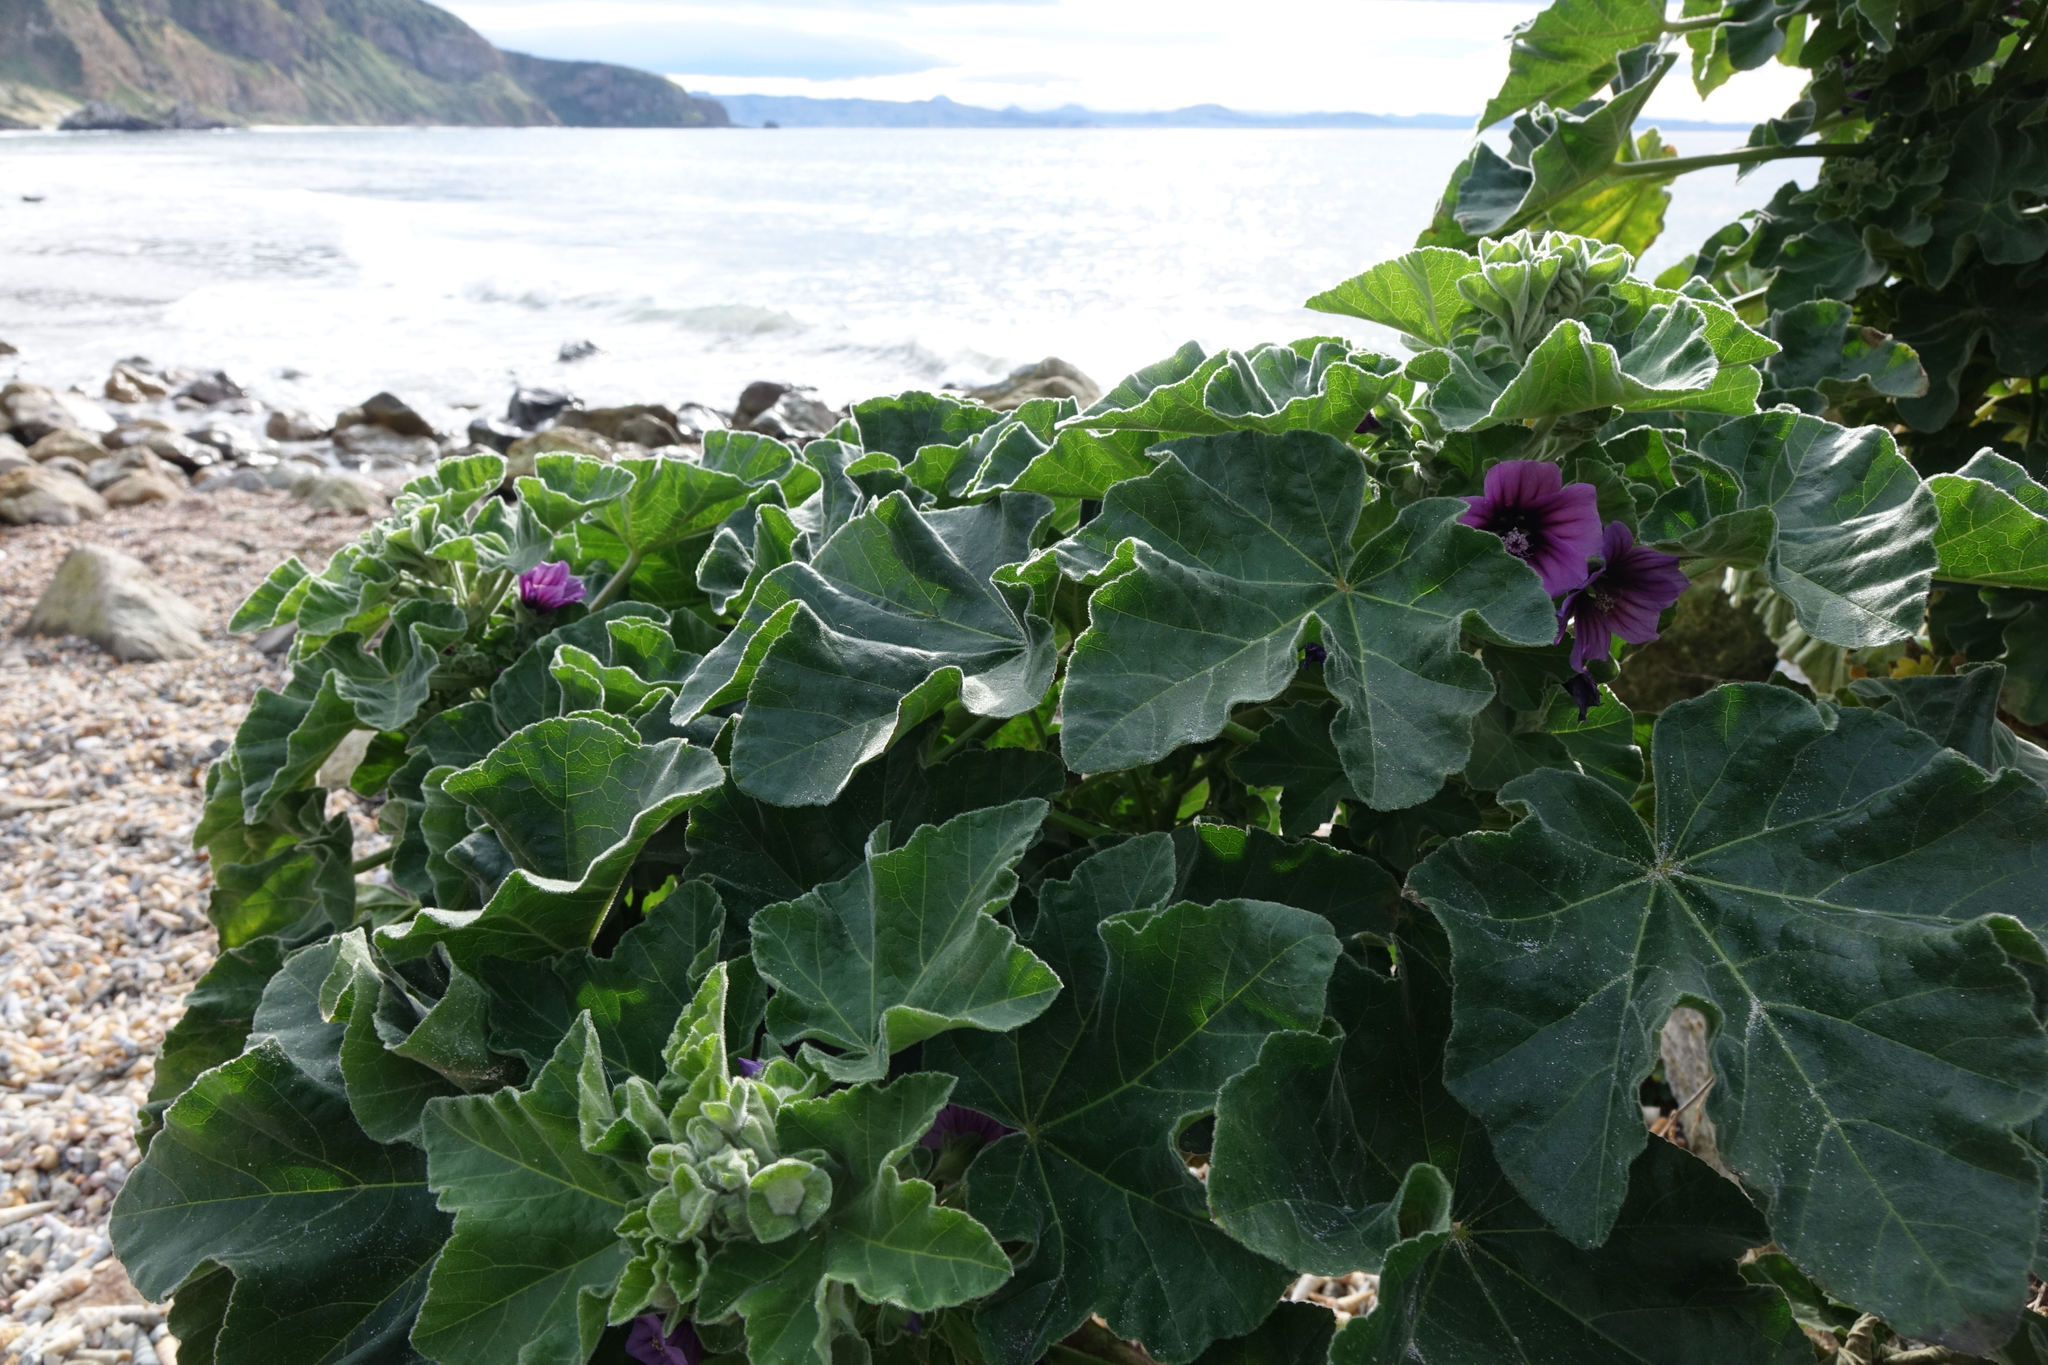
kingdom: Plantae
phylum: Tracheophyta
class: Magnoliopsida
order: Malvales
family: Malvaceae
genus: Malva
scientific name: Malva arborea
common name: Tree mallow
